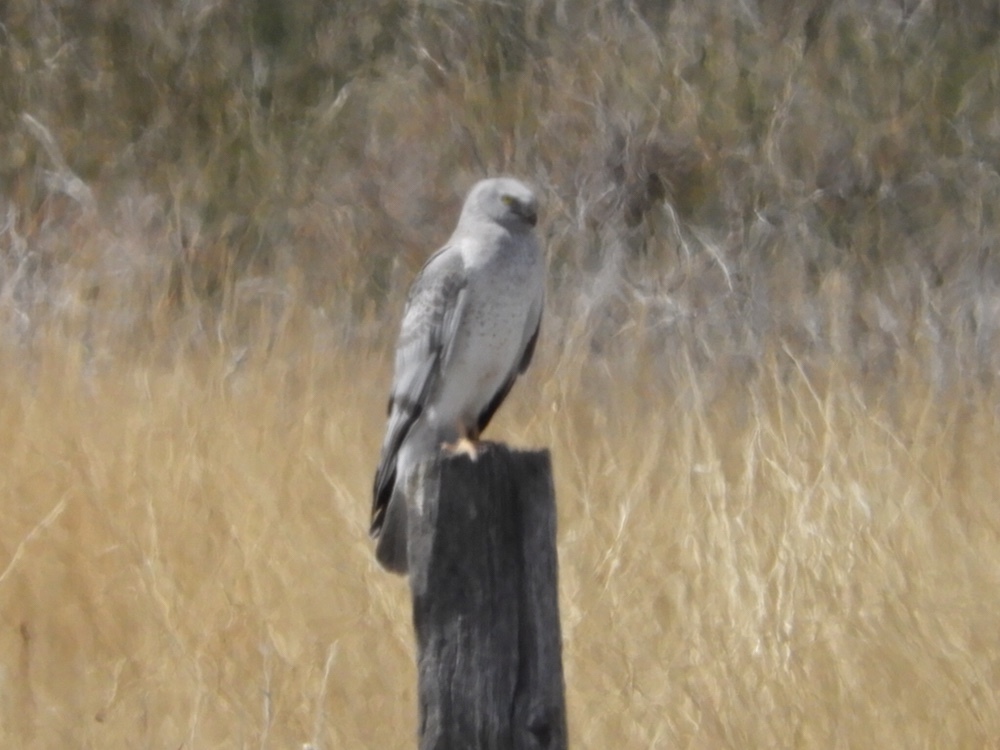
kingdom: Animalia
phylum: Chordata
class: Aves
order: Accipitriformes
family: Accipitridae
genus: Circus
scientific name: Circus cyaneus
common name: Hen harrier
